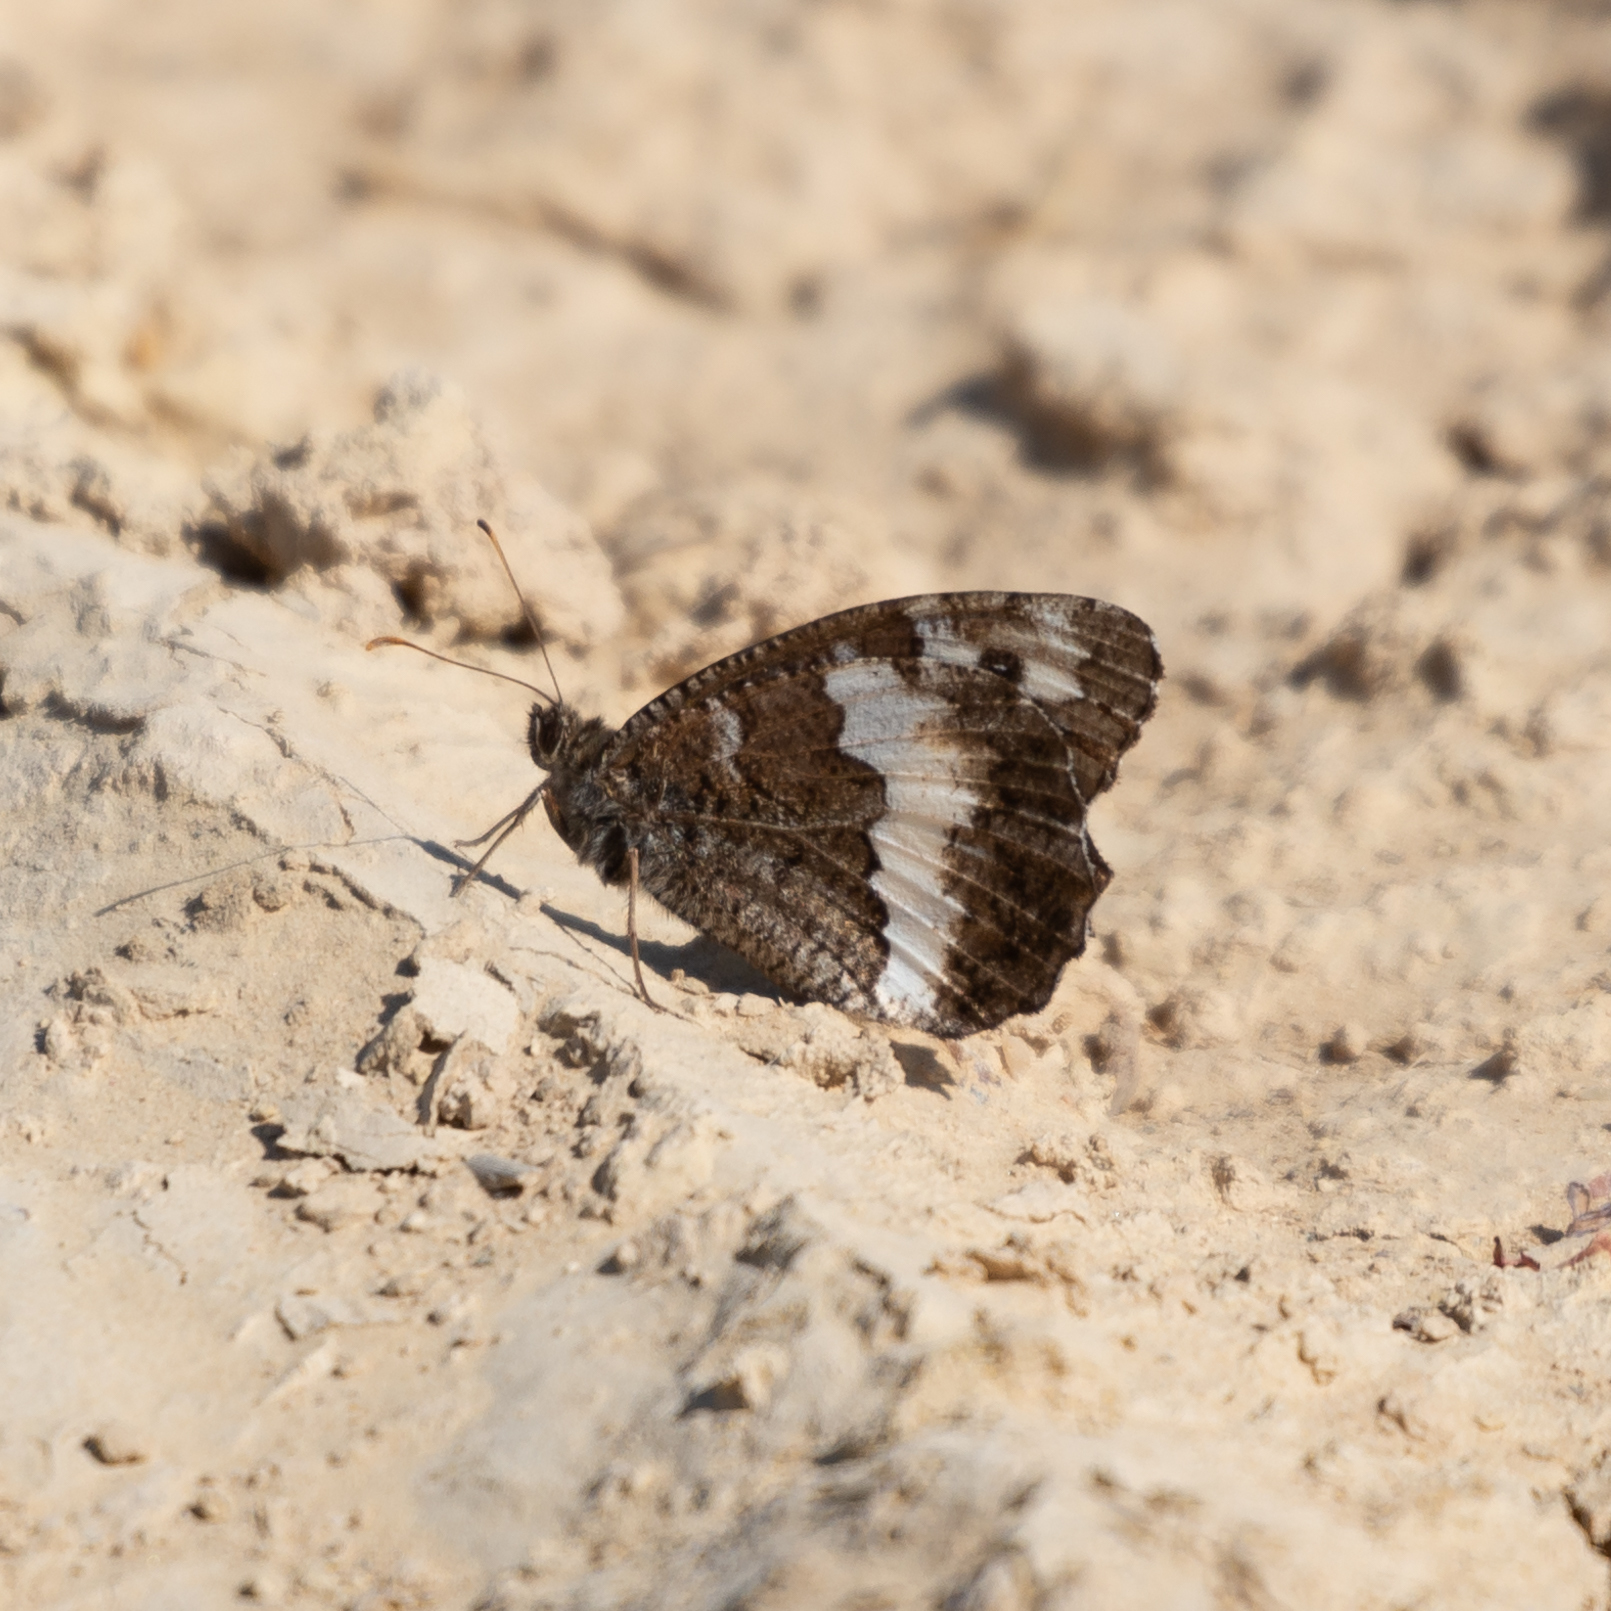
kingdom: Animalia
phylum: Arthropoda
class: Insecta
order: Lepidoptera
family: Lycaenidae
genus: Loweia
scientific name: Loweia tityrus
